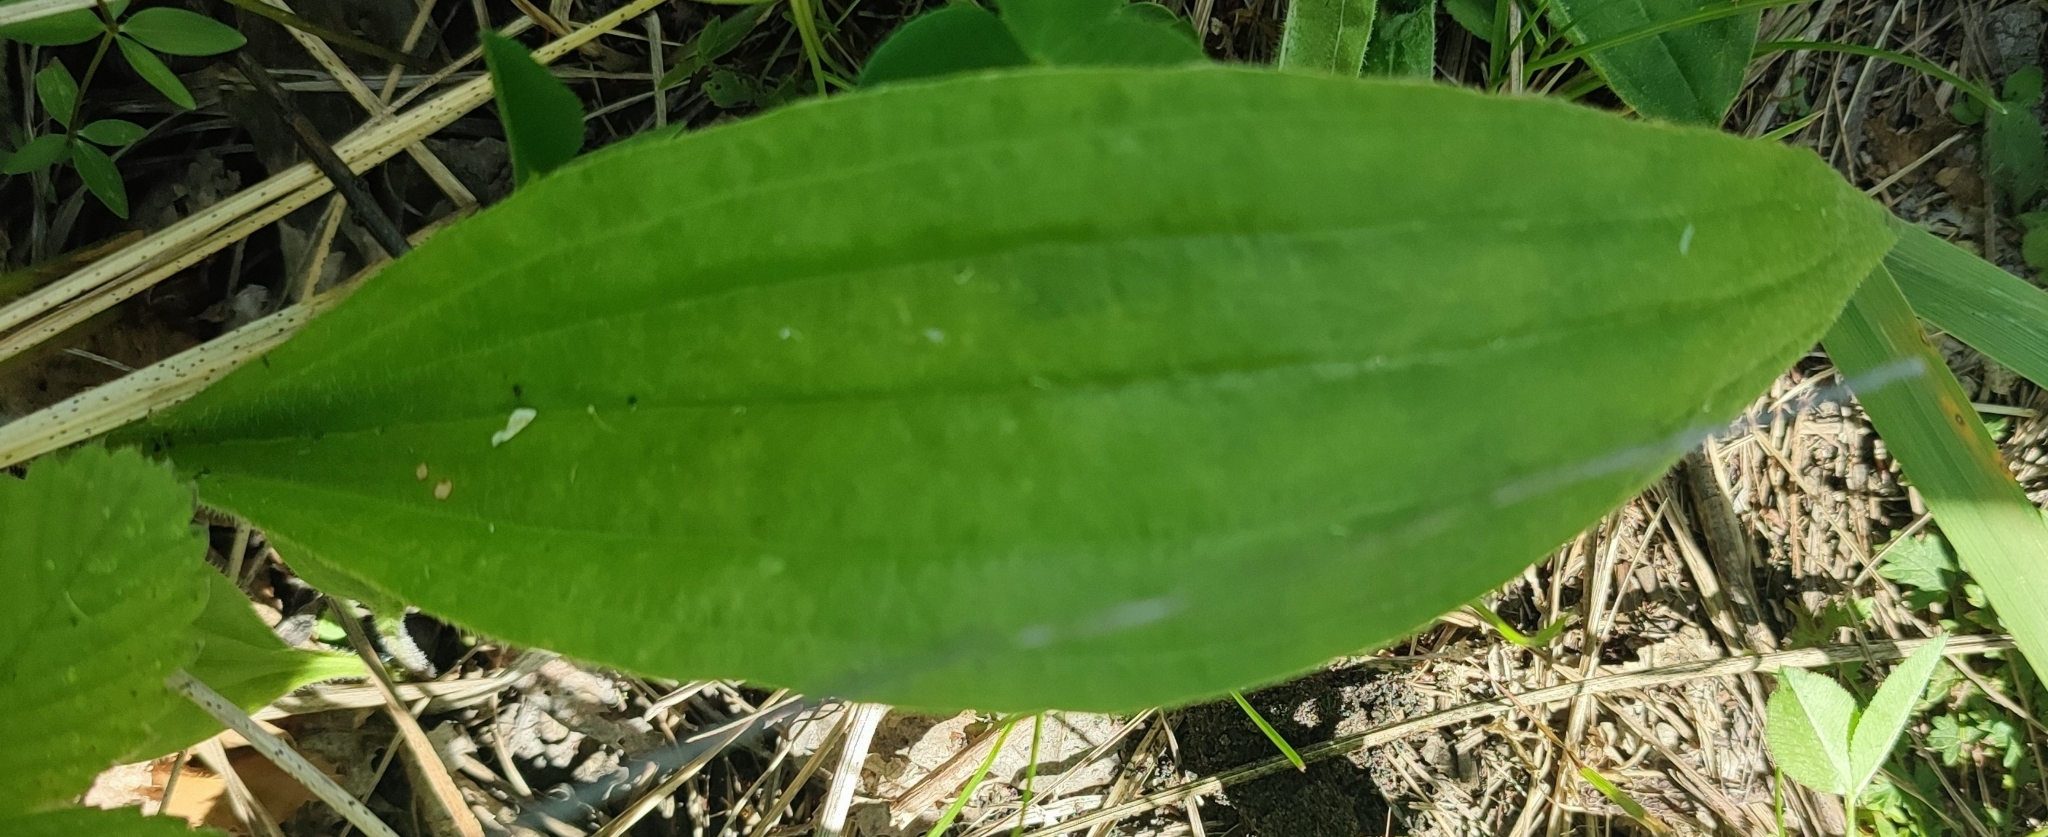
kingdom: Plantae
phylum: Tracheophyta
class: Magnoliopsida
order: Lamiales
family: Plantaginaceae
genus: Plantago
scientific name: Plantago urvillei
